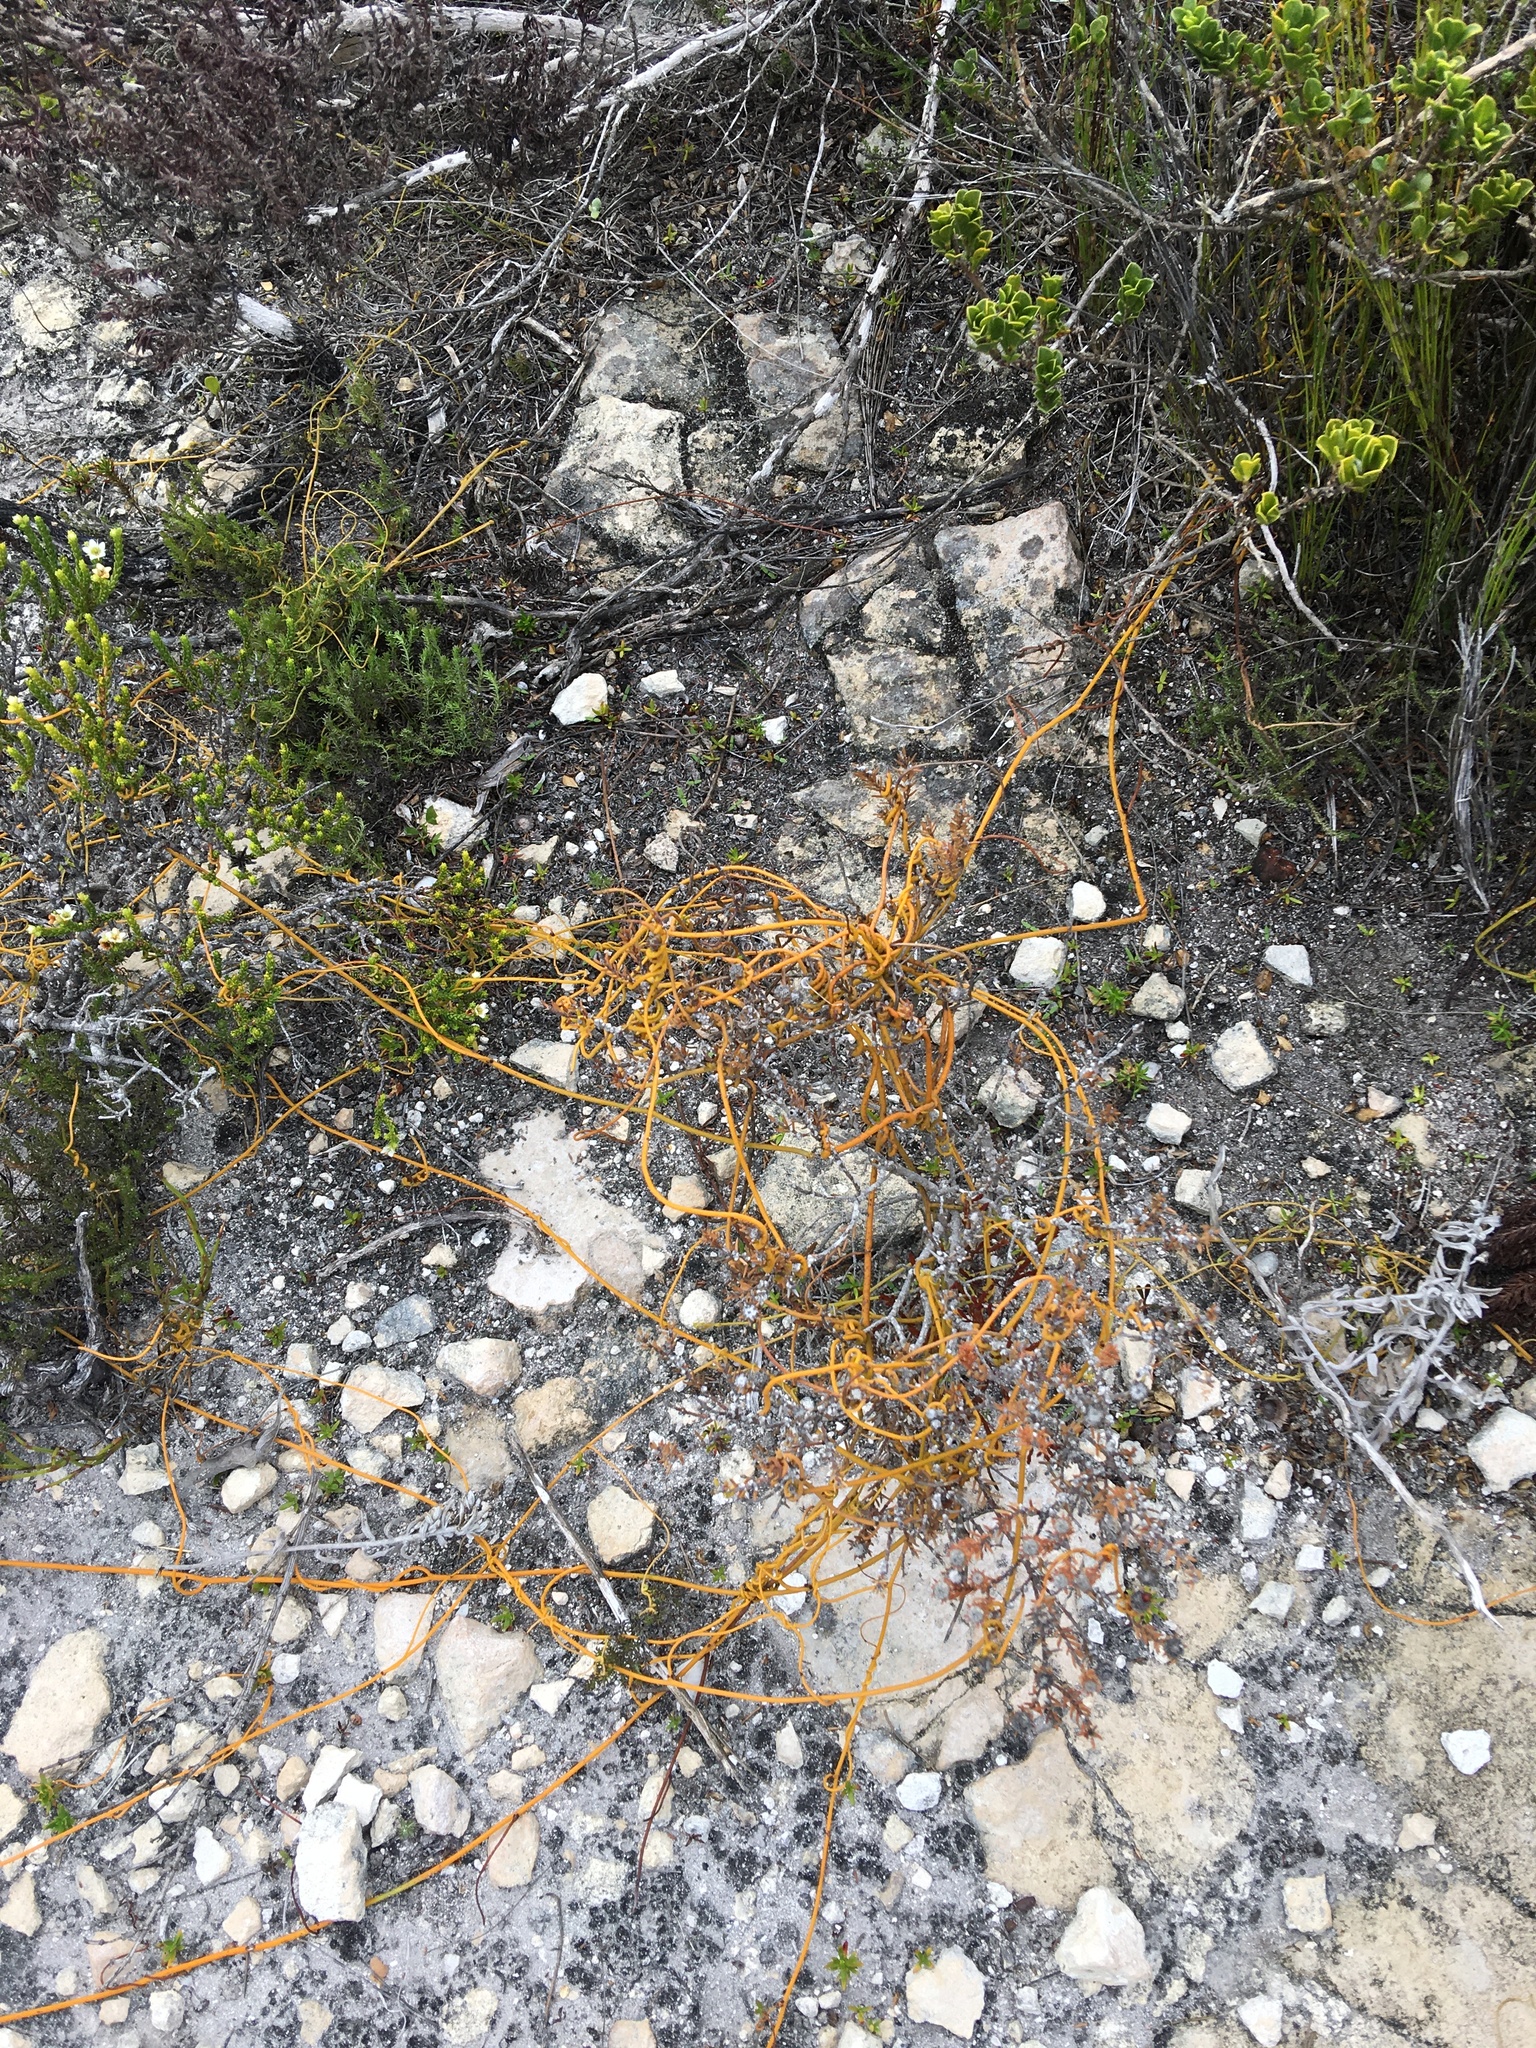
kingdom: Plantae
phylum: Tracheophyta
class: Magnoliopsida
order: Laurales
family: Lauraceae
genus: Cassytha
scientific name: Cassytha ciliolata
